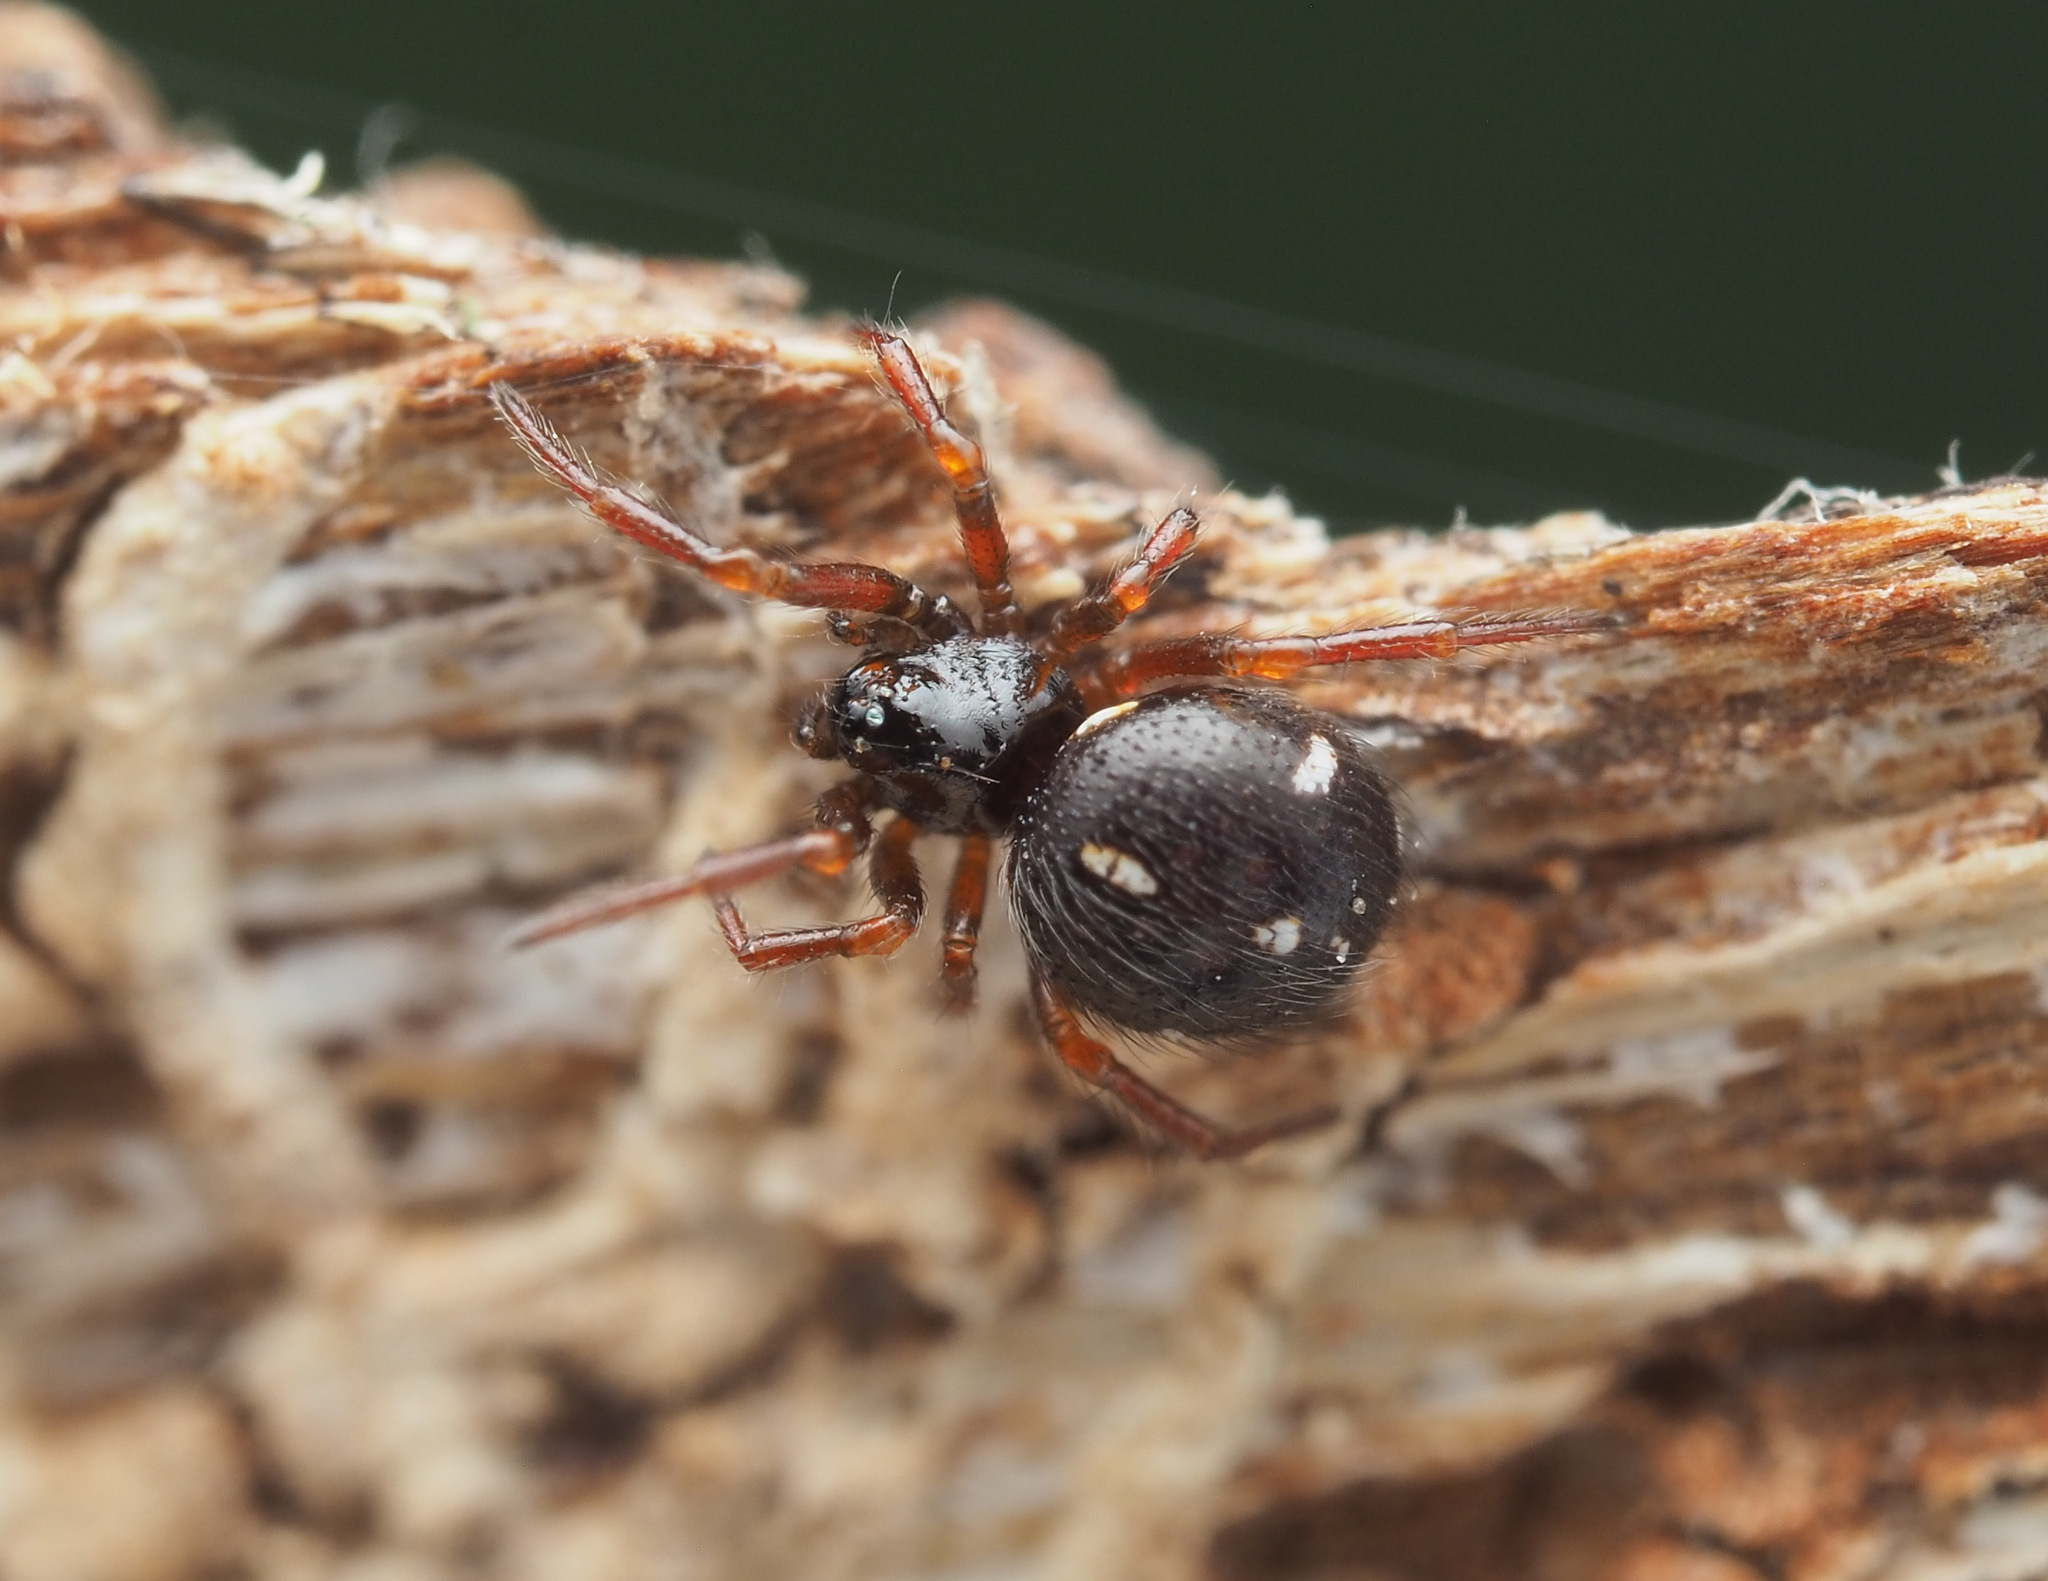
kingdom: Animalia
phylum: Arthropoda
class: Arachnida
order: Araneae
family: Theridiidae
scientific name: Theridiidae
